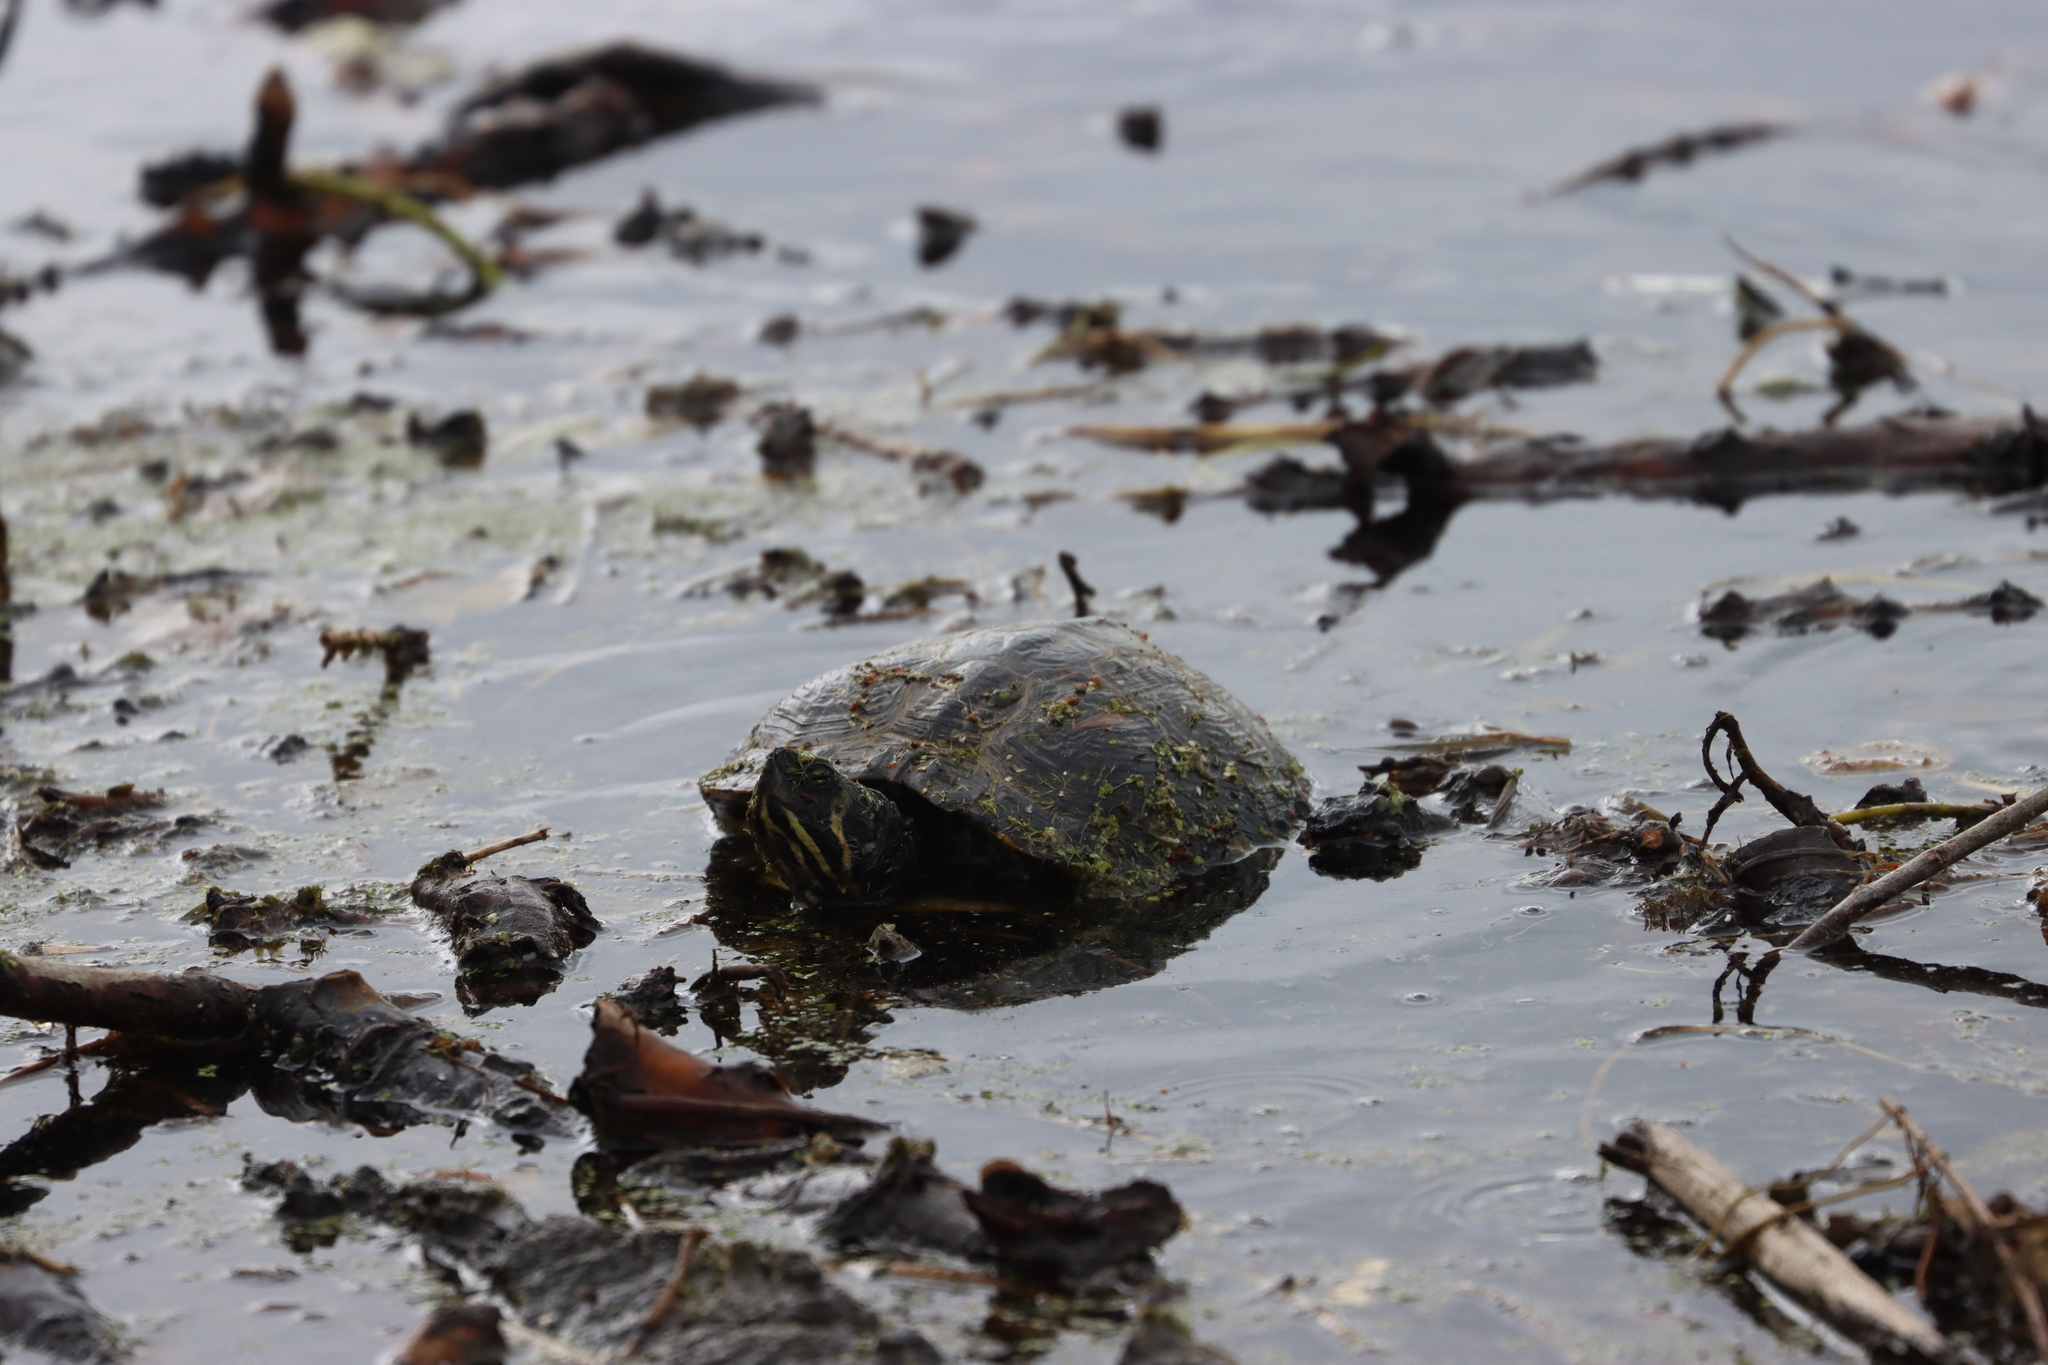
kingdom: Animalia
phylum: Chordata
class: Testudines
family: Emydidae
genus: Trachemys
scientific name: Trachemys scripta
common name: Slider
